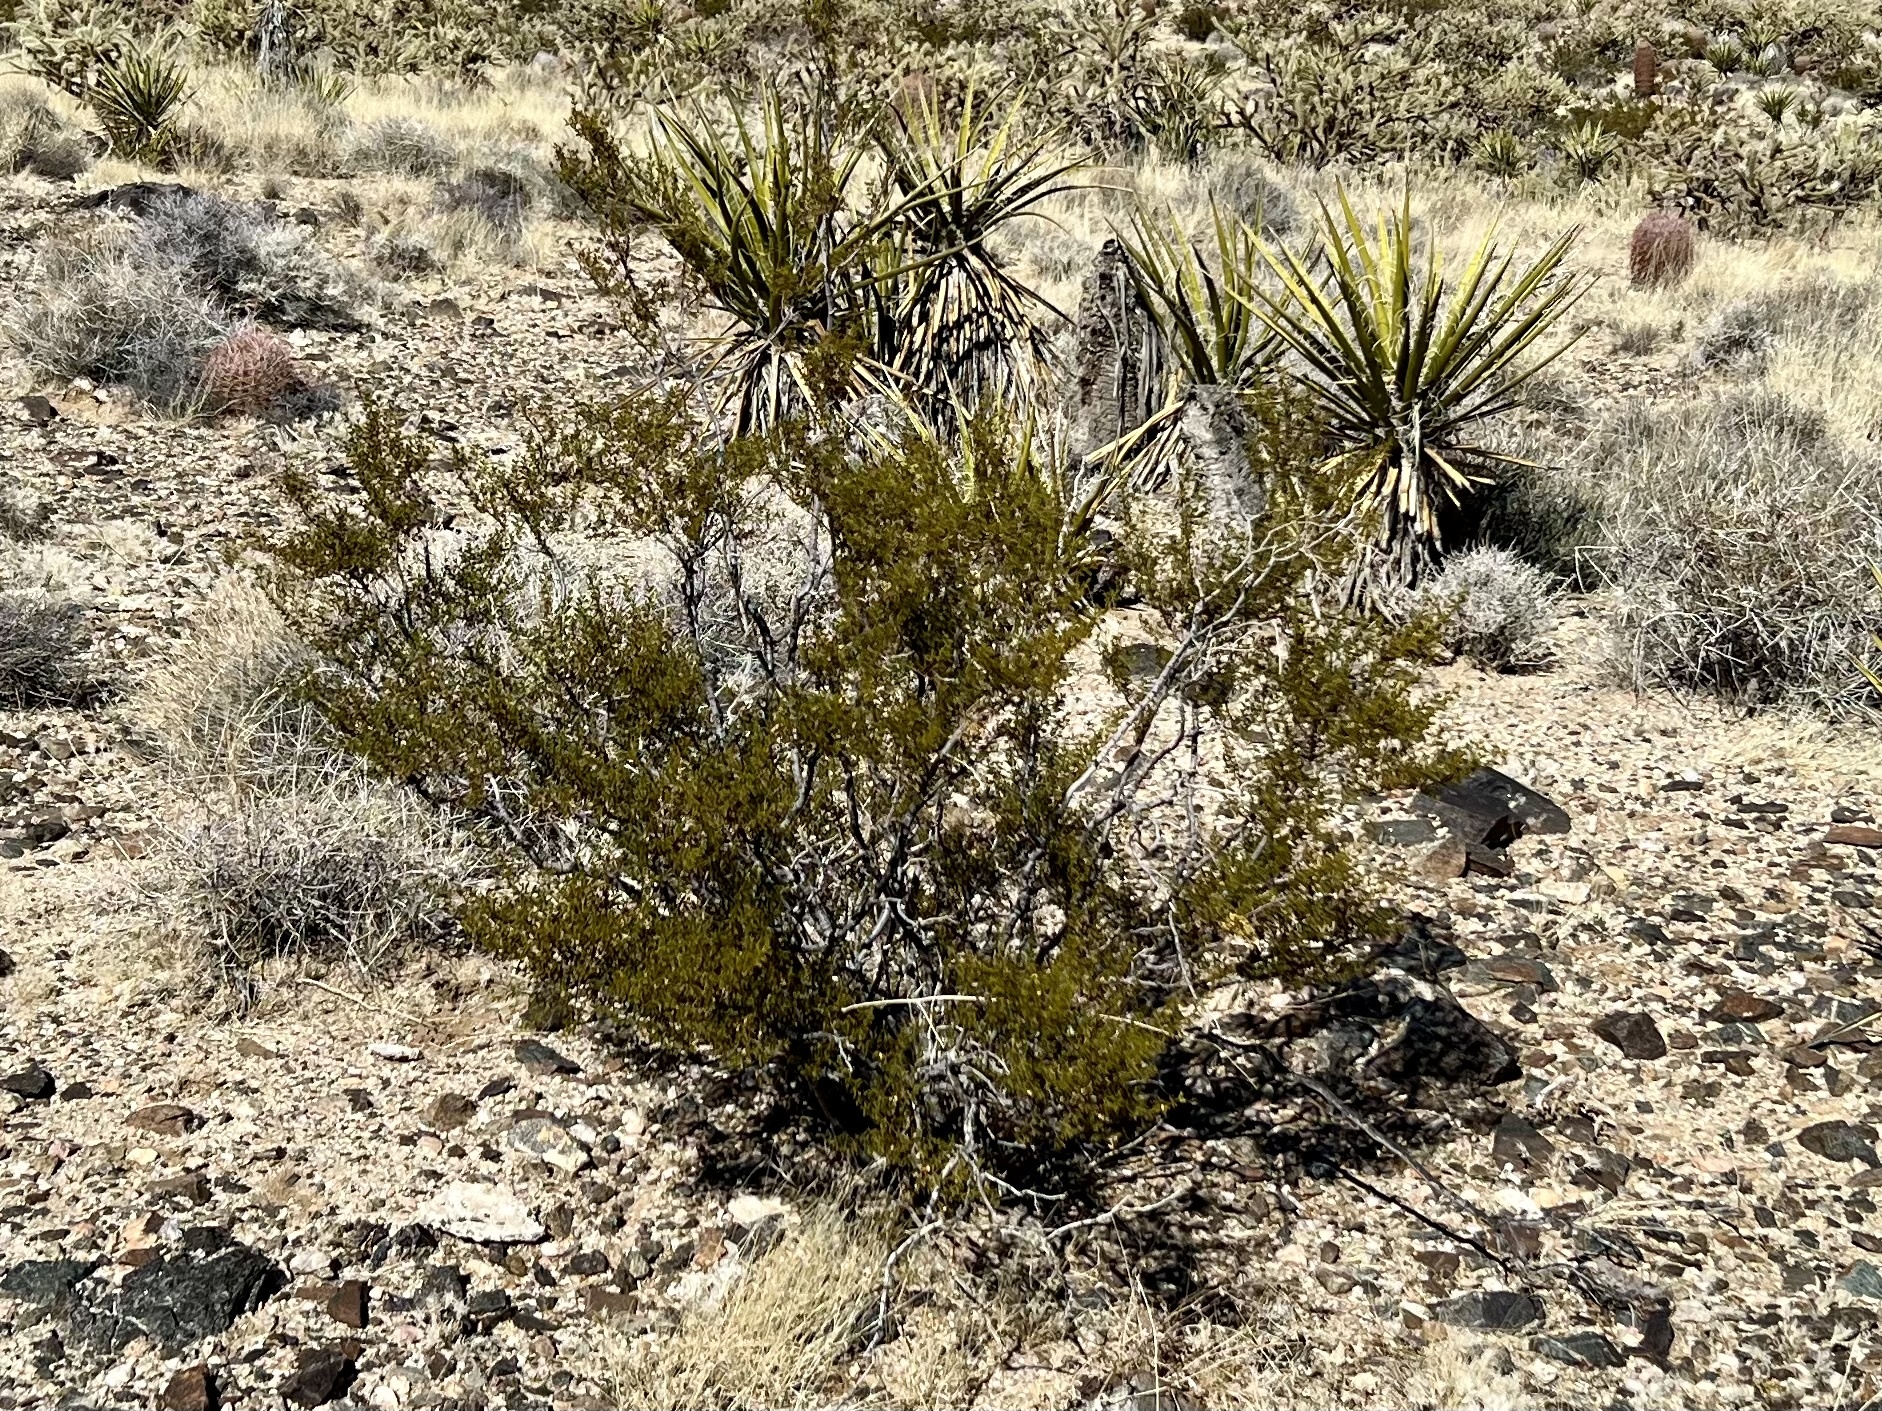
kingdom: Plantae
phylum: Tracheophyta
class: Magnoliopsida
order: Zygophyllales
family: Zygophyllaceae
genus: Larrea
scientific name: Larrea tridentata
